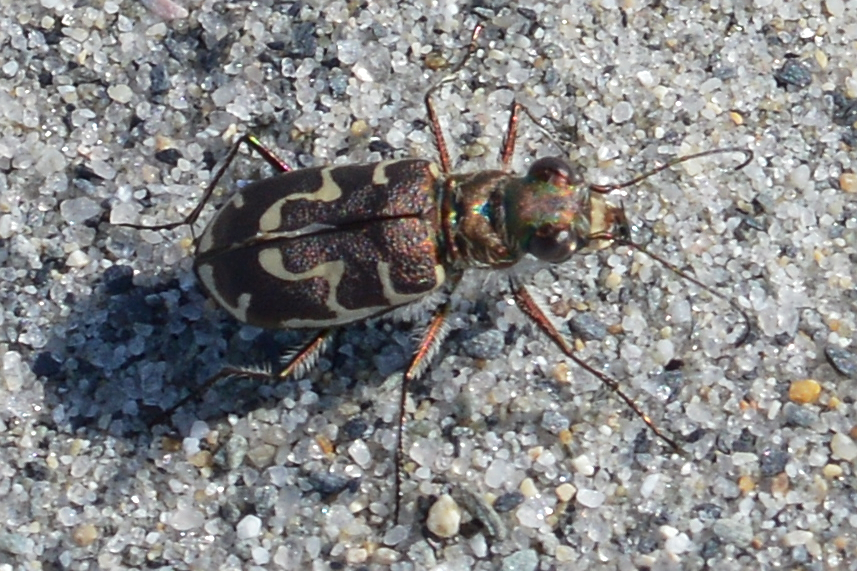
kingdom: Animalia
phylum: Arthropoda
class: Insecta
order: Coleoptera
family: Carabidae
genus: Cicindela
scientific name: Cicindela hirticollis
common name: Hairy-necked tiger beetle
